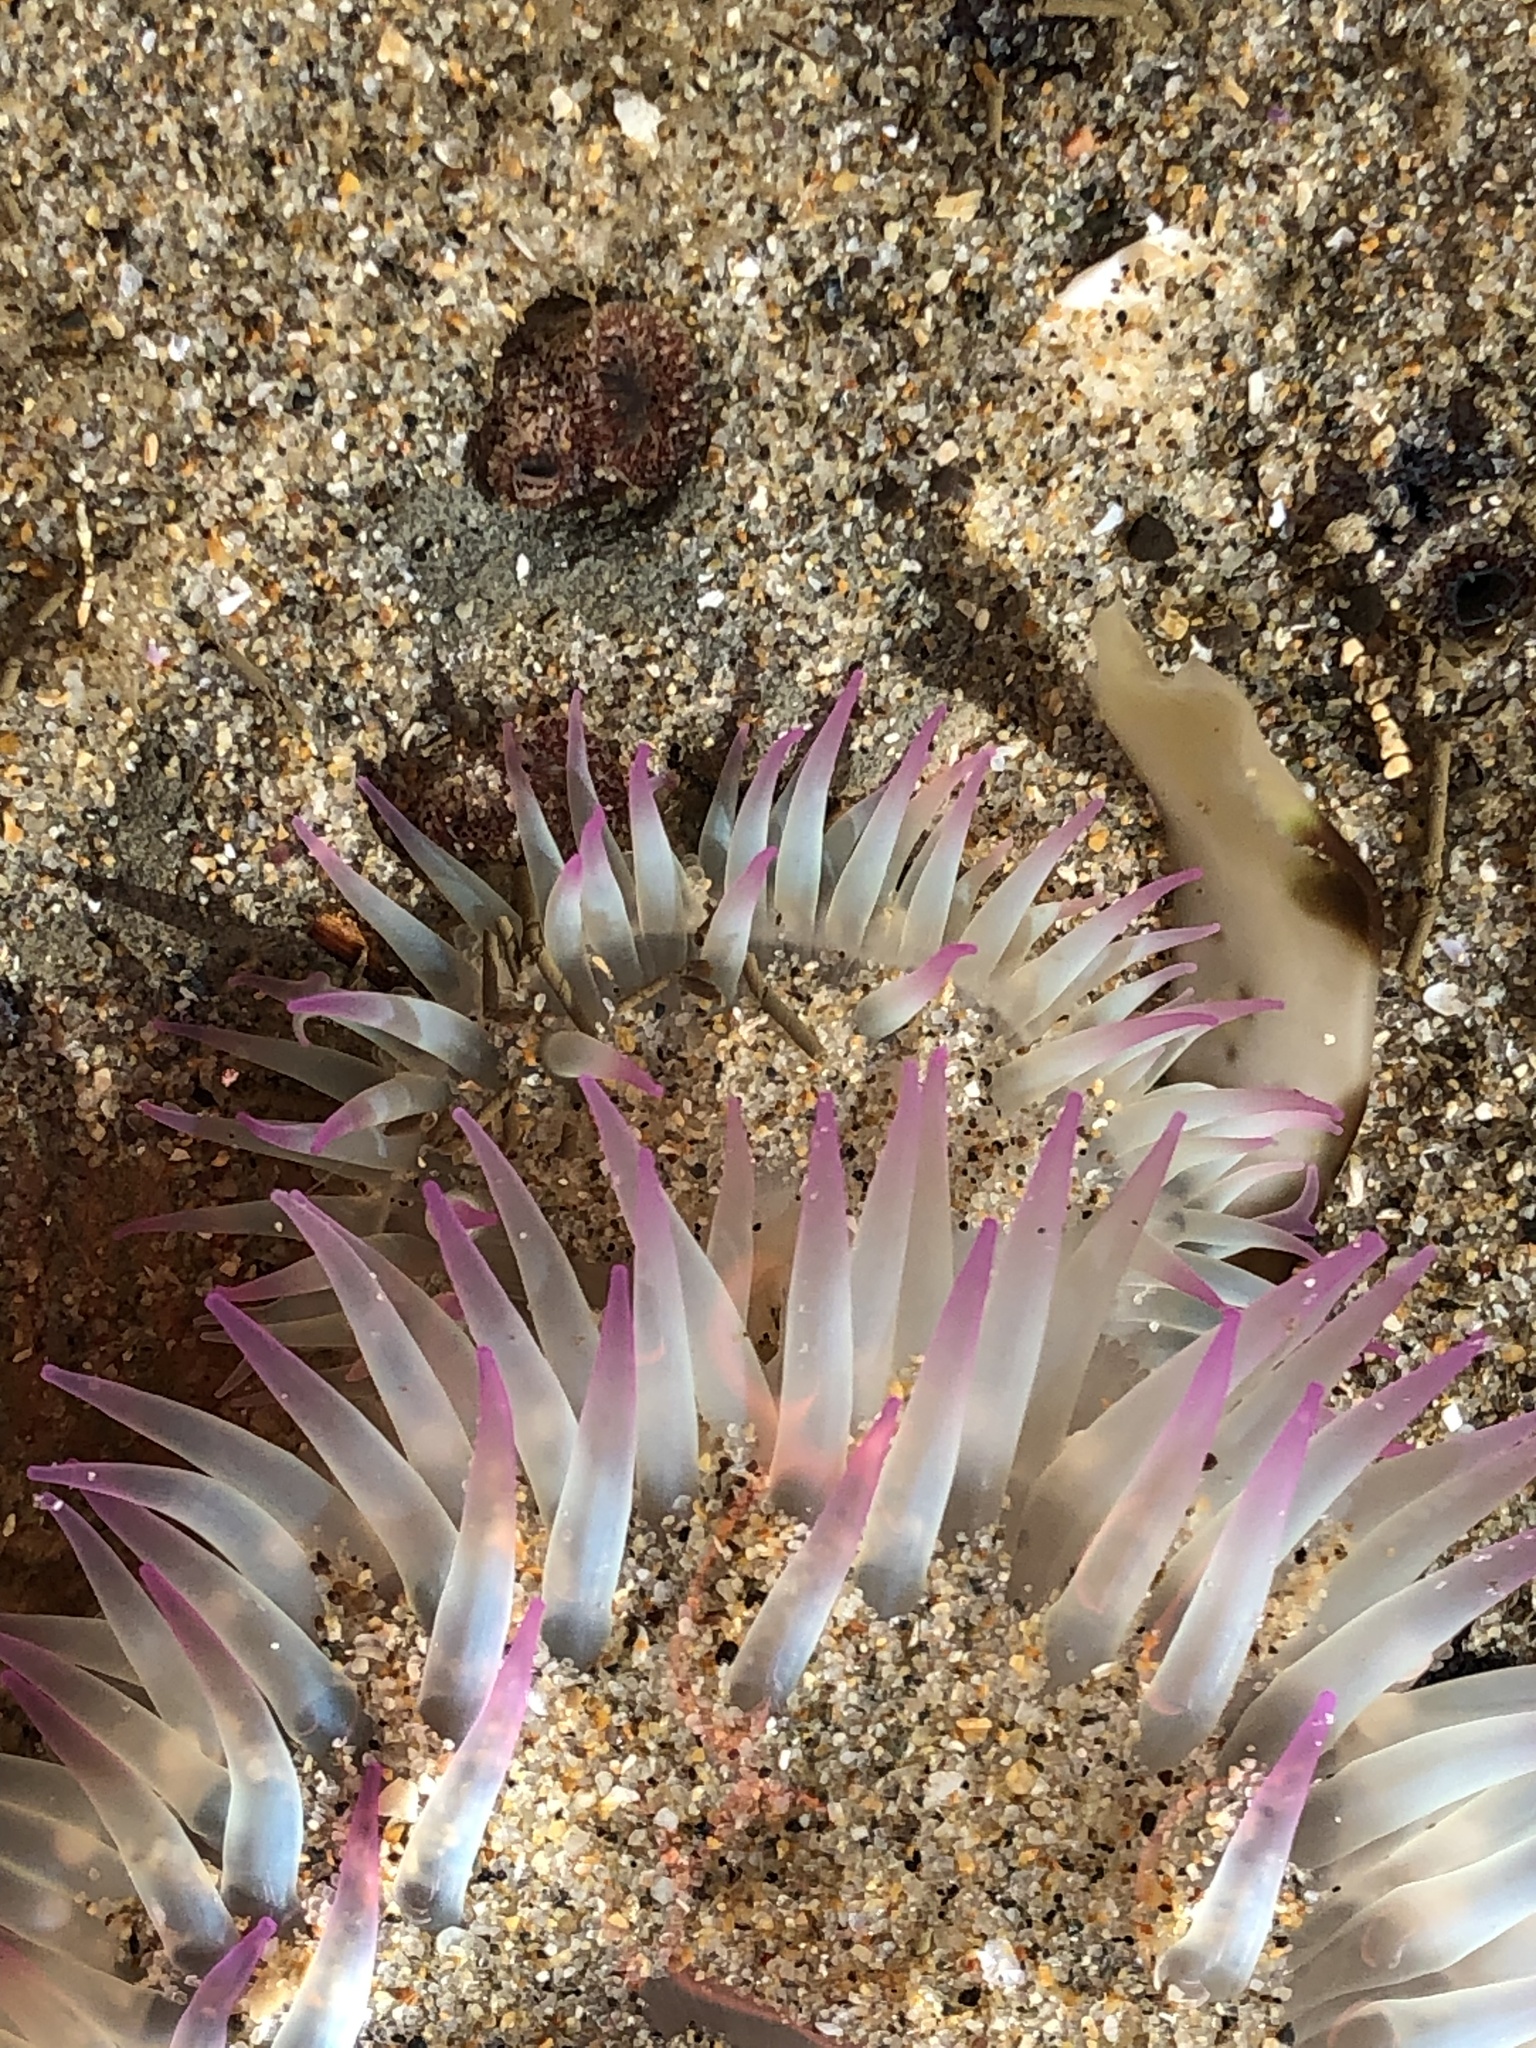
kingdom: Animalia
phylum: Cnidaria
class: Anthozoa
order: Actiniaria
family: Actiniidae
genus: Anthopleura
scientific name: Anthopleura elegantissima
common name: Clonal anemone
